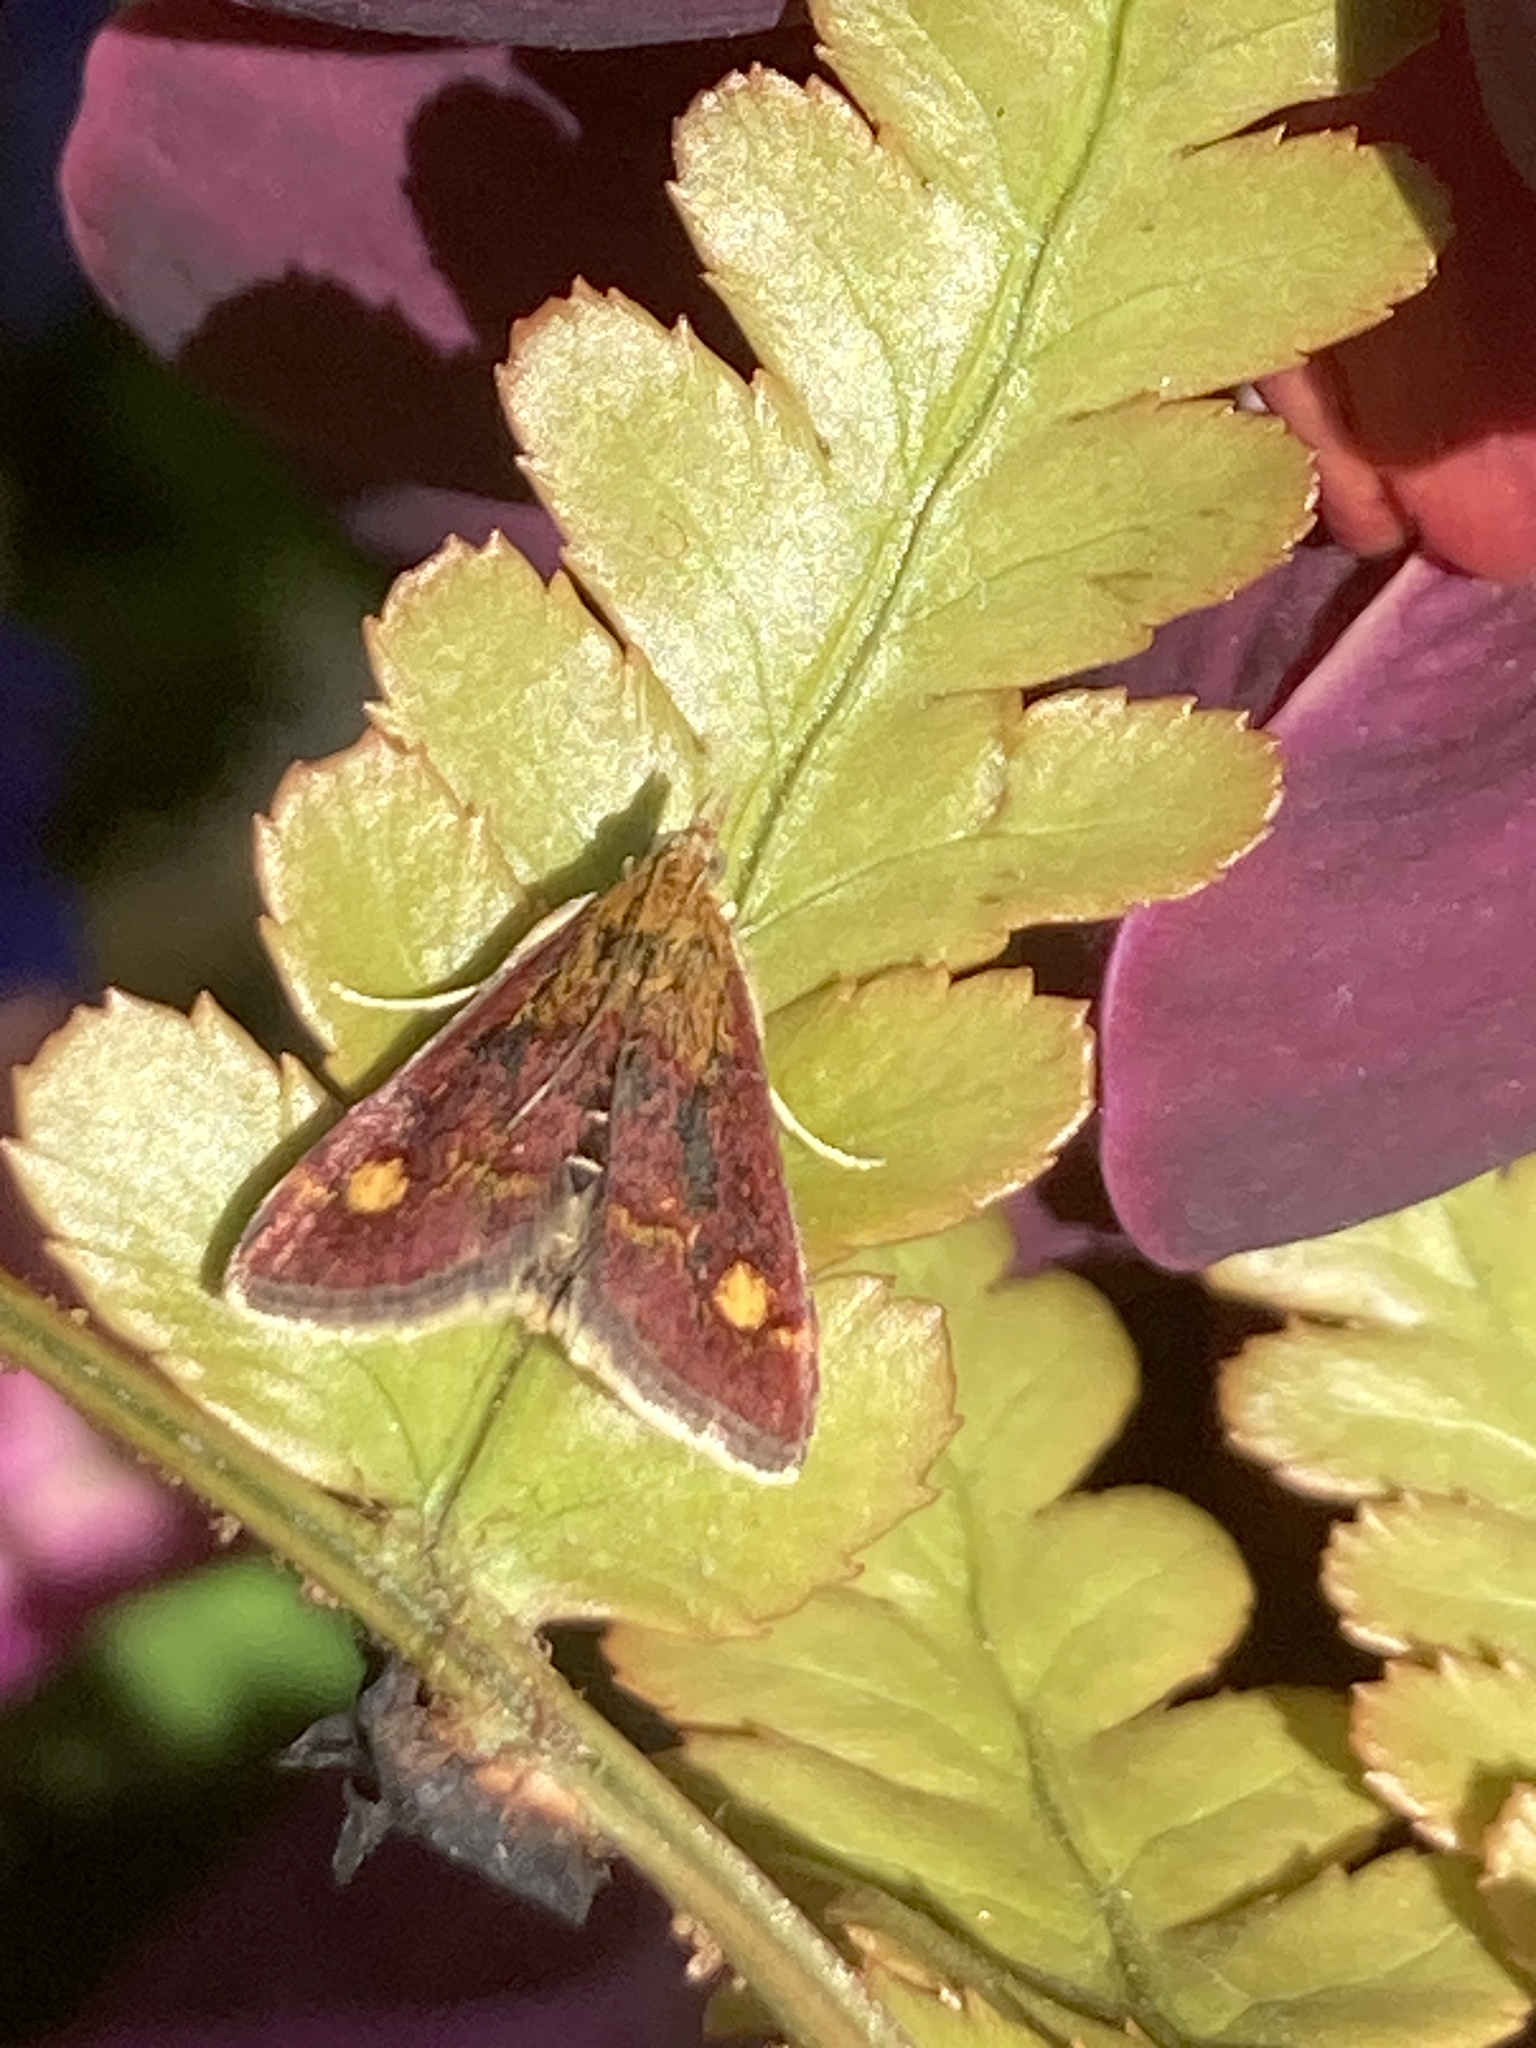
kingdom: Animalia
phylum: Arthropoda
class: Insecta
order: Lepidoptera
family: Crambidae
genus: Pyrausta
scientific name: Pyrausta aurata
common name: Small purple & gold
